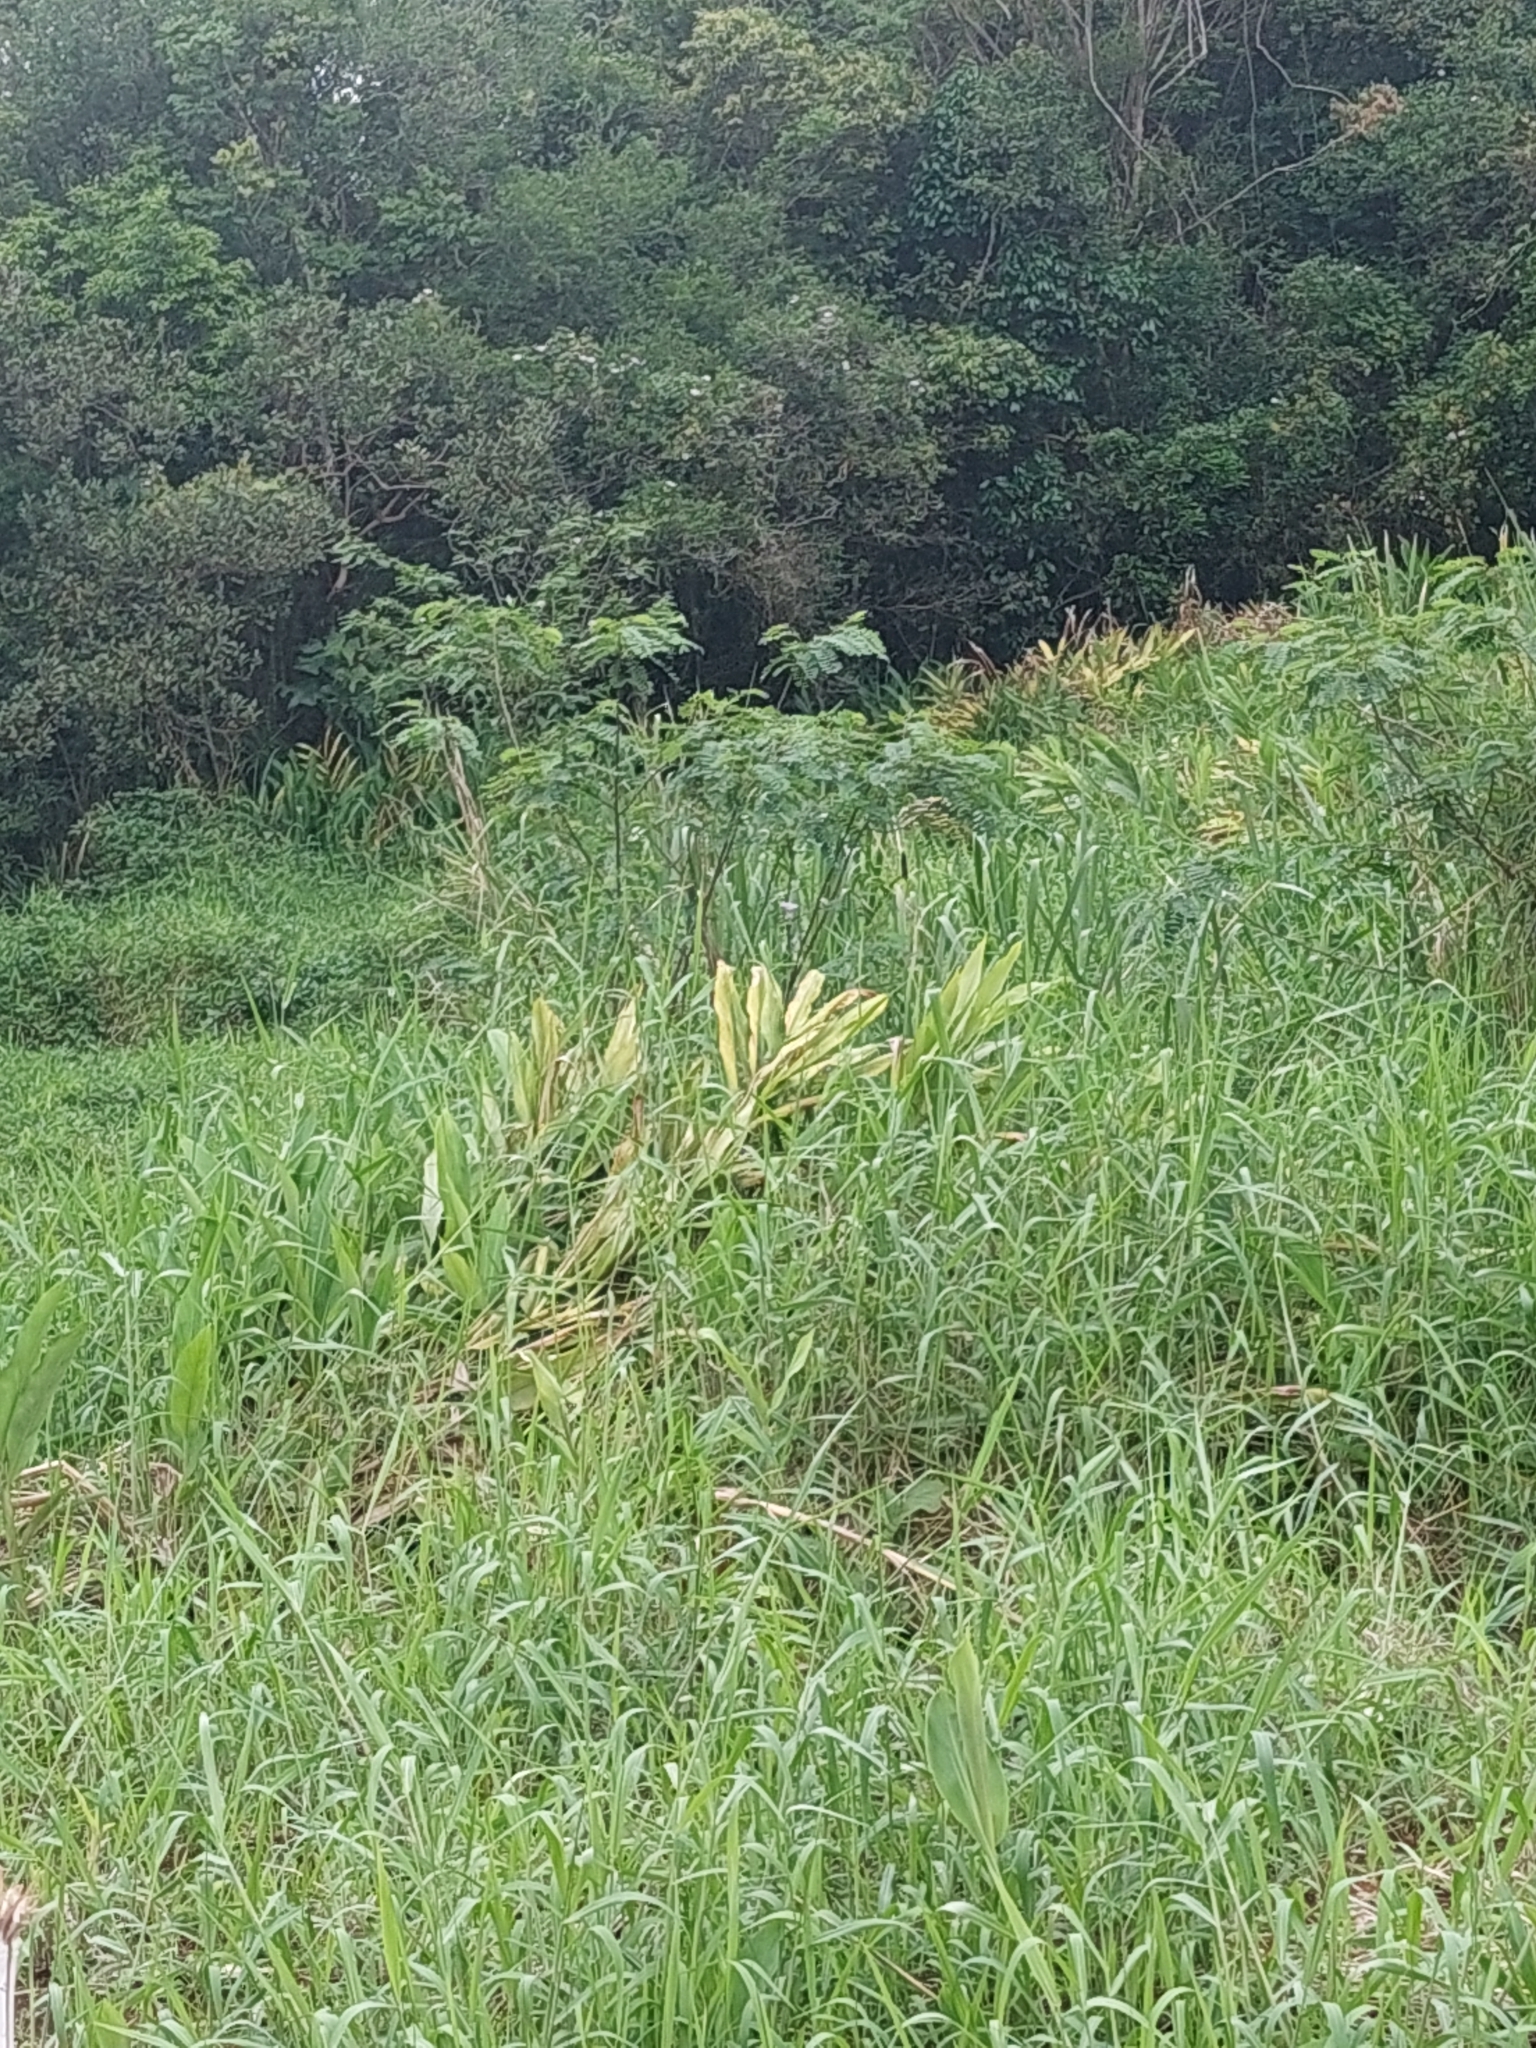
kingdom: Plantae
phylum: Tracheophyta
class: Liliopsida
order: Zingiberales
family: Zingiberaceae
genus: Hedychium
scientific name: Hedychium coronarium
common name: White garland-lily
